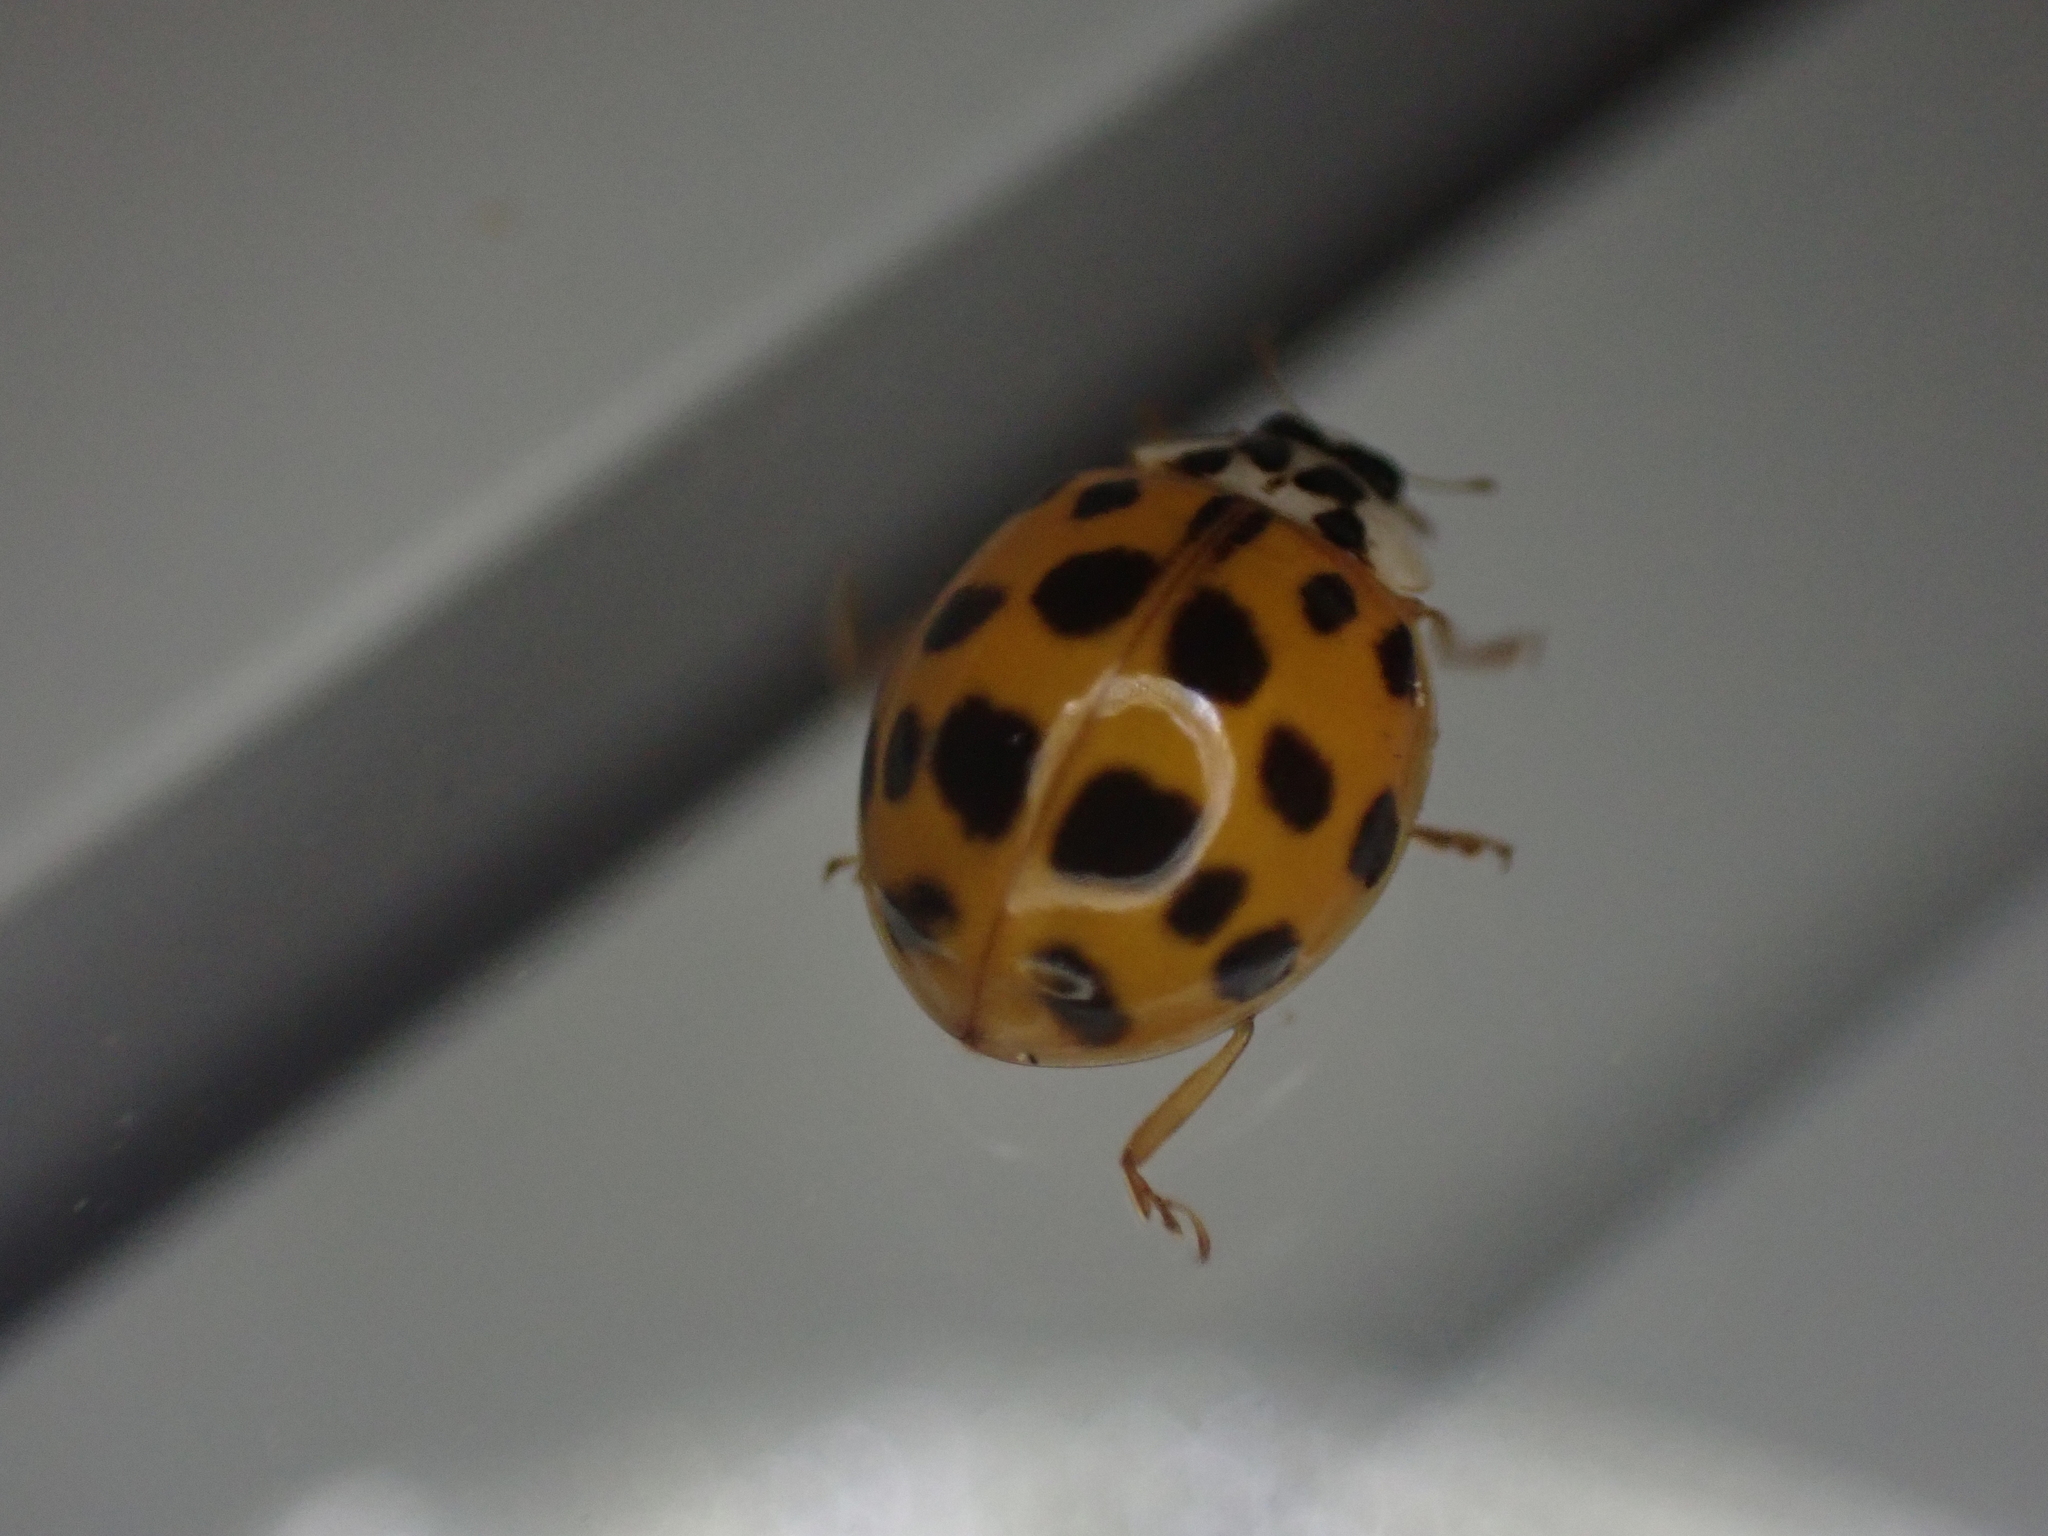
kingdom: Animalia
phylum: Arthropoda
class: Insecta
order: Coleoptera
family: Coccinellidae
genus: Harmonia
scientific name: Harmonia axyridis
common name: Harlequin ladybird
